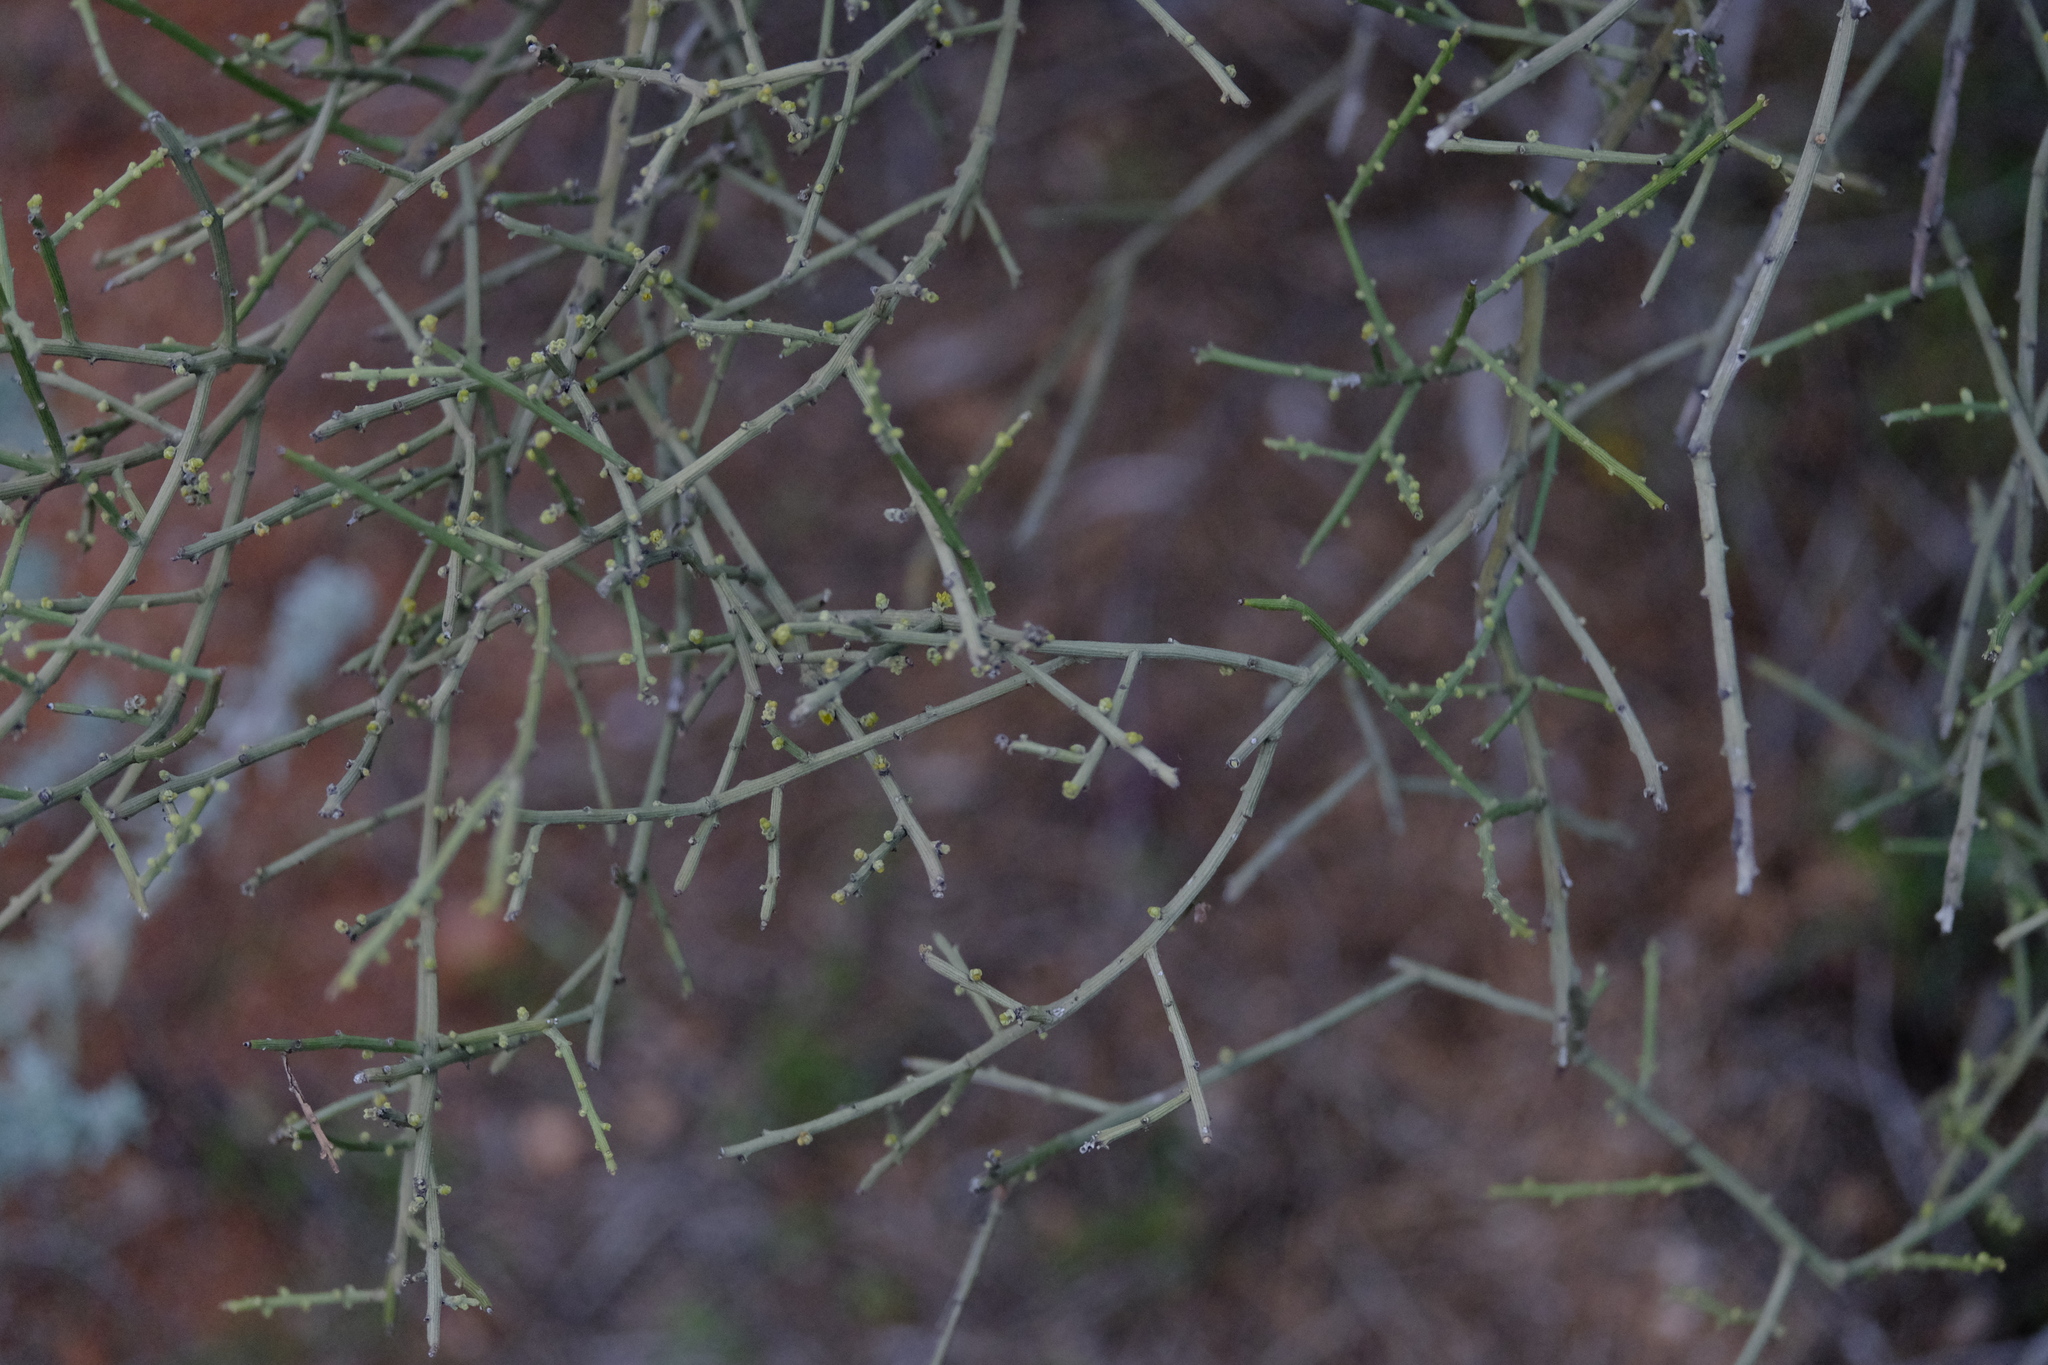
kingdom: Plantae
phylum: Tracheophyta
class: Magnoliopsida
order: Santalales
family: Santalaceae
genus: Exocarpos
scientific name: Exocarpos aphyllus
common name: Leafless ballart
